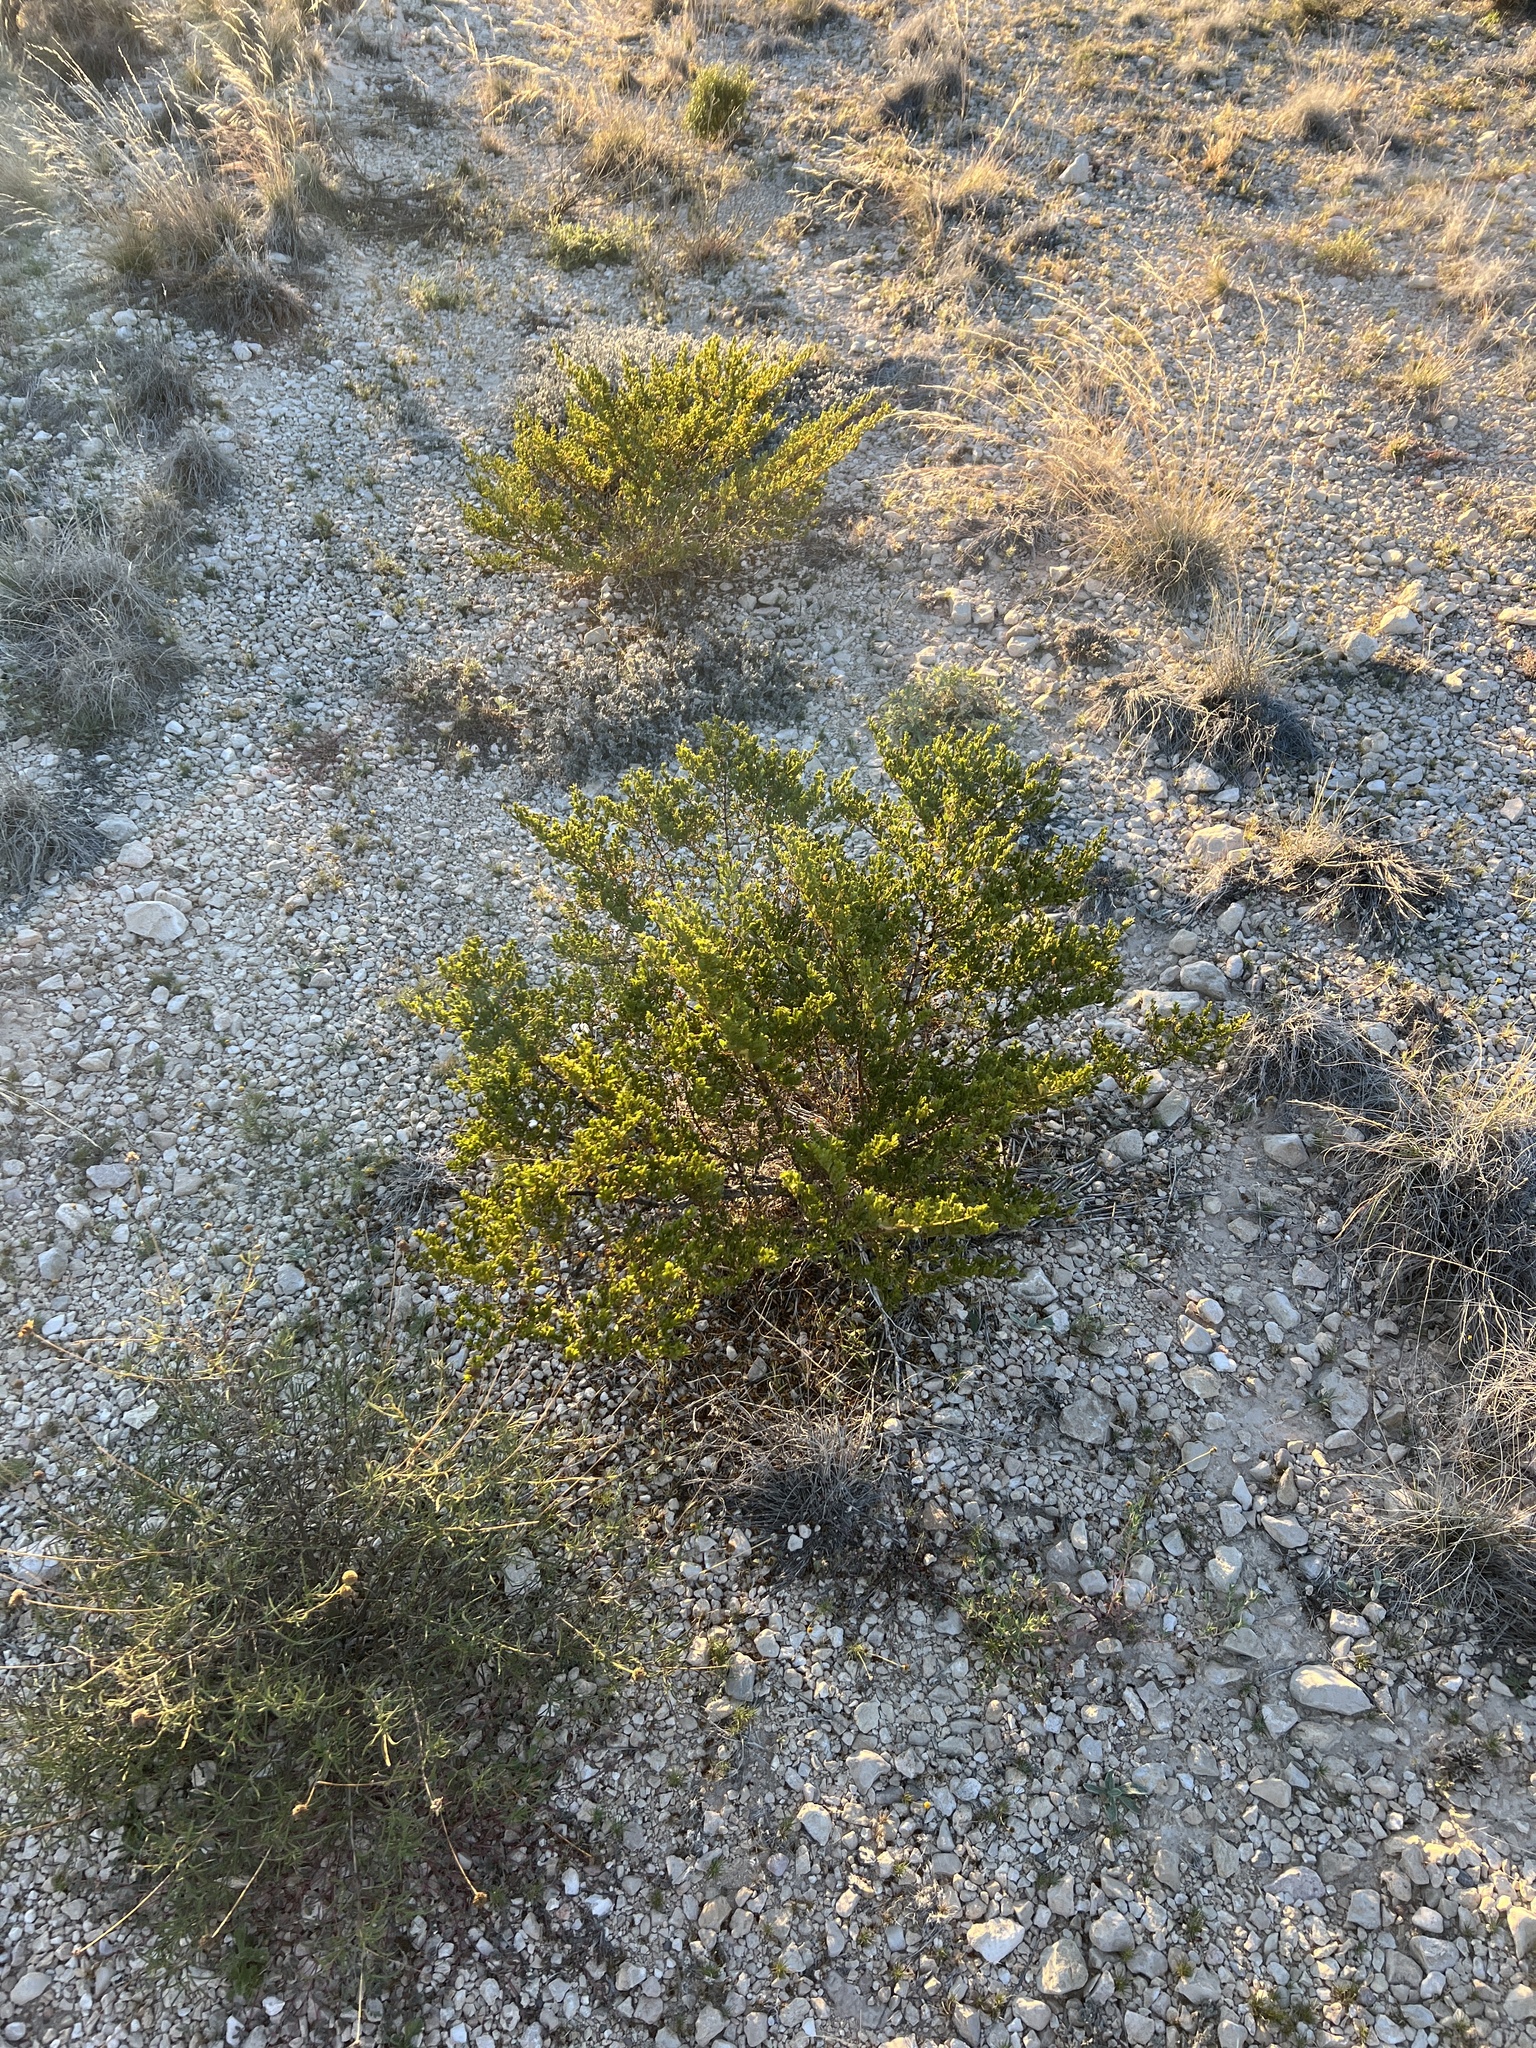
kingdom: Plantae
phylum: Tracheophyta
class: Magnoliopsida
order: Zygophyllales
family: Zygophyllaceae
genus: Larrea
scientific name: Larrea tridentata
